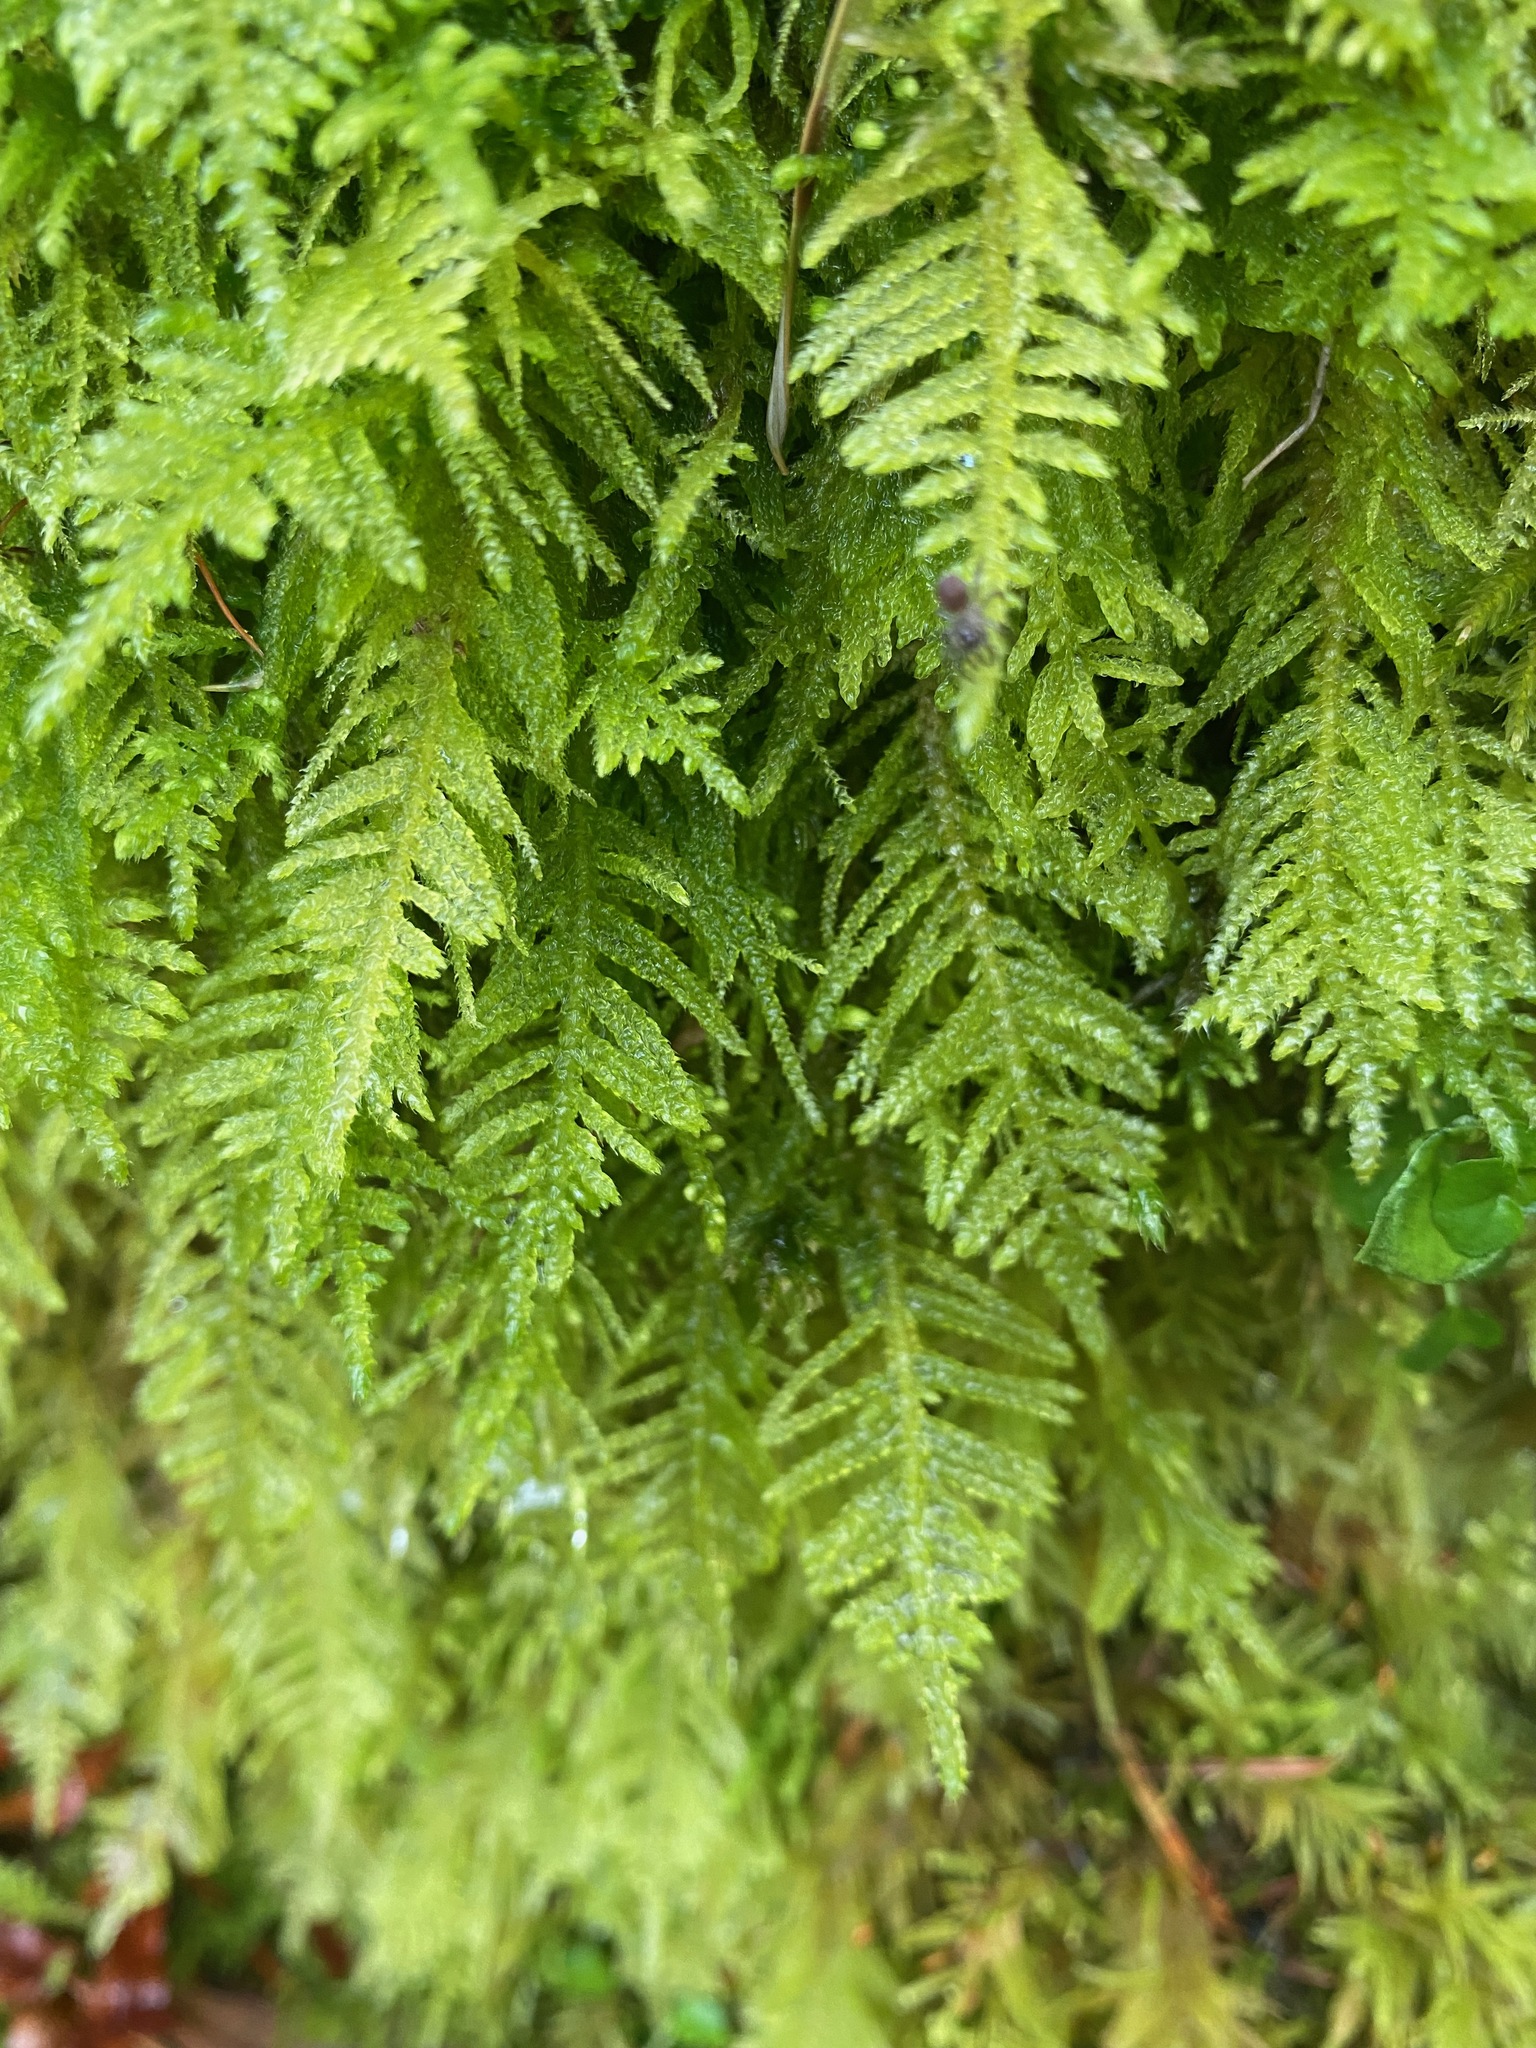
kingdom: Plantae
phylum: Bryophyta
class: Bryopsida
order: Hypnales
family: Brachytheciaceae
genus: Kindbergia
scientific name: Kindbergia oregana
